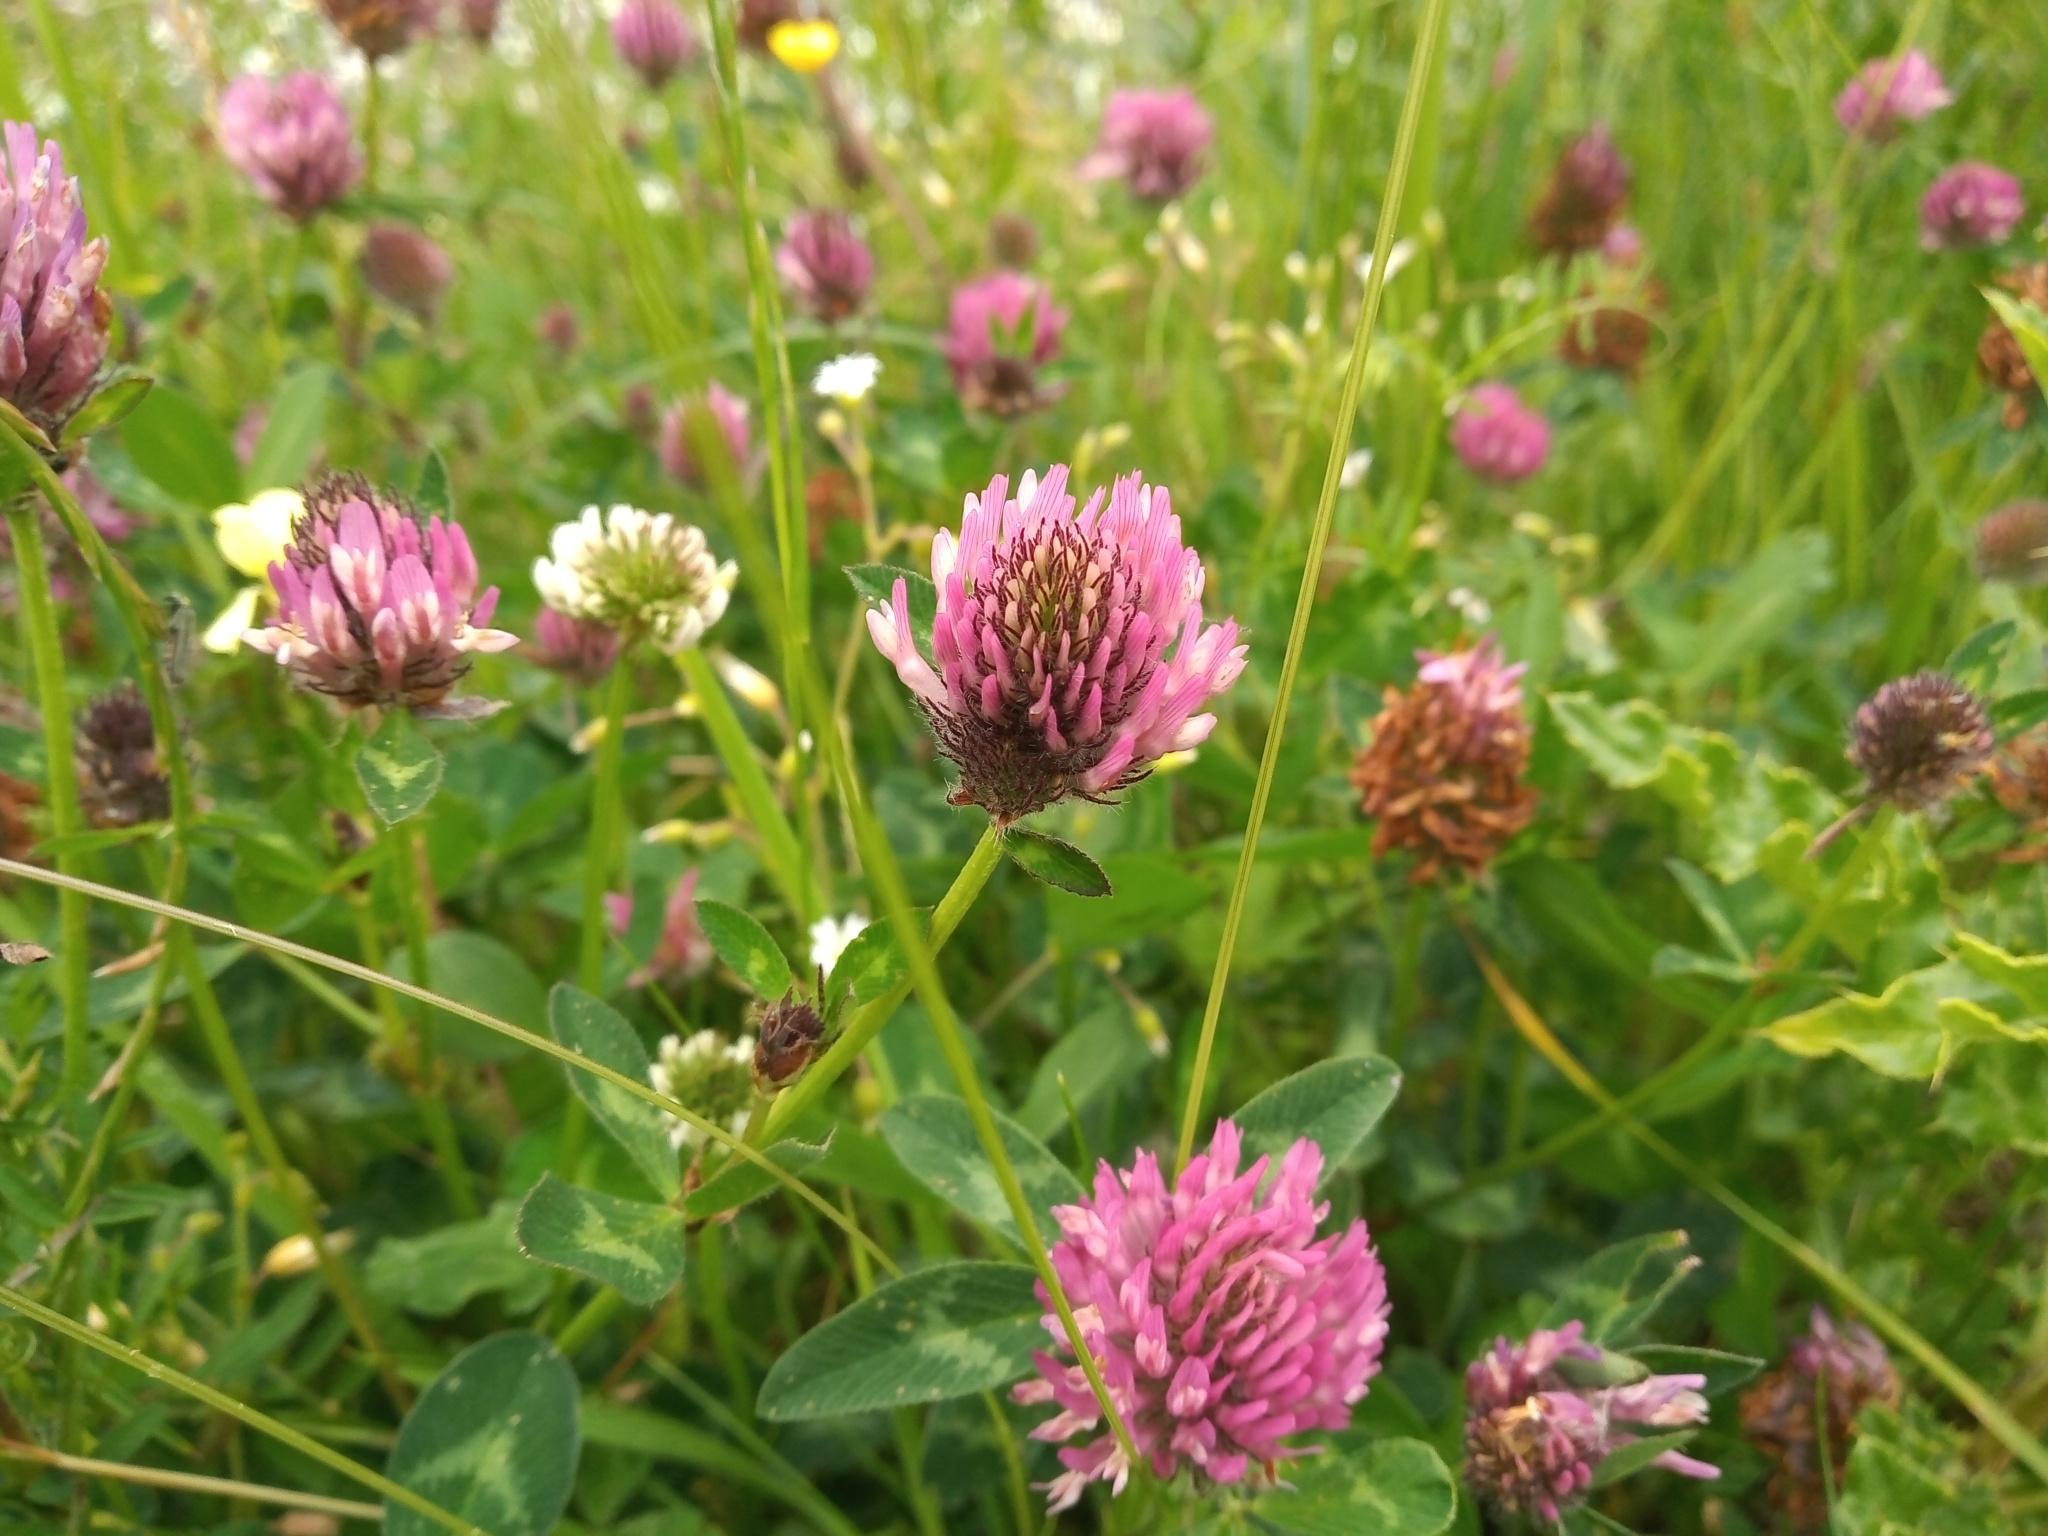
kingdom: Plantae
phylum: Tracheophyta
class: Magnoliopsida
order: Fabales
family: Fabaceae
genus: Trifolium
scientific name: Trifolium pratense
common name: Red clover
